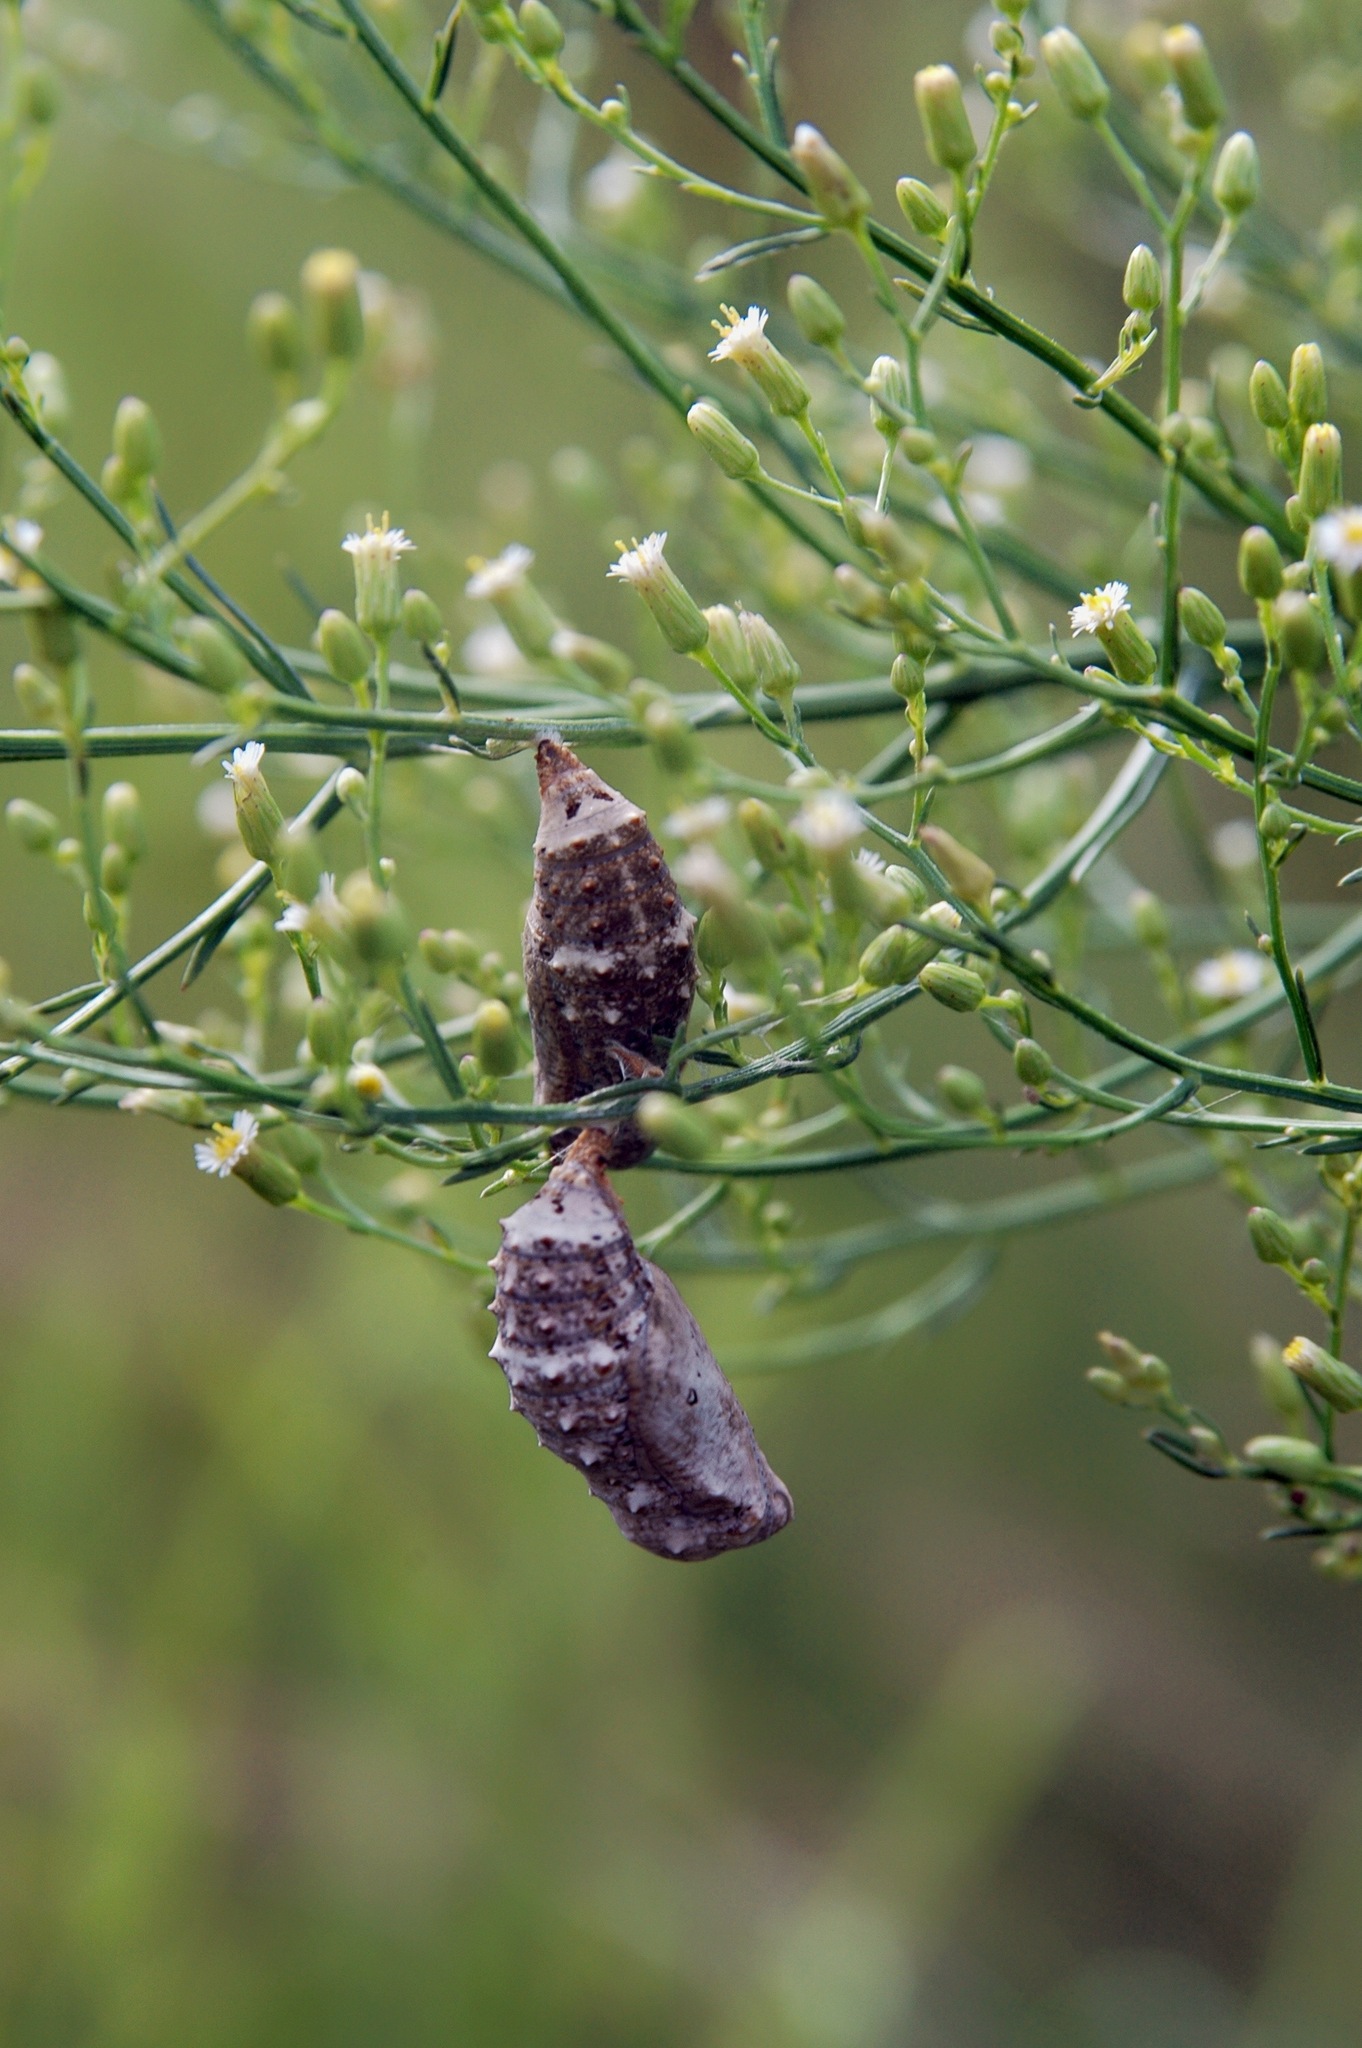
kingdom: Animalia
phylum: Arthropoda
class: Insecta
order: Lepidoptera
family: Nymphalidae
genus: Junonia
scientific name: Junonia coenia
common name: Common buckeye
